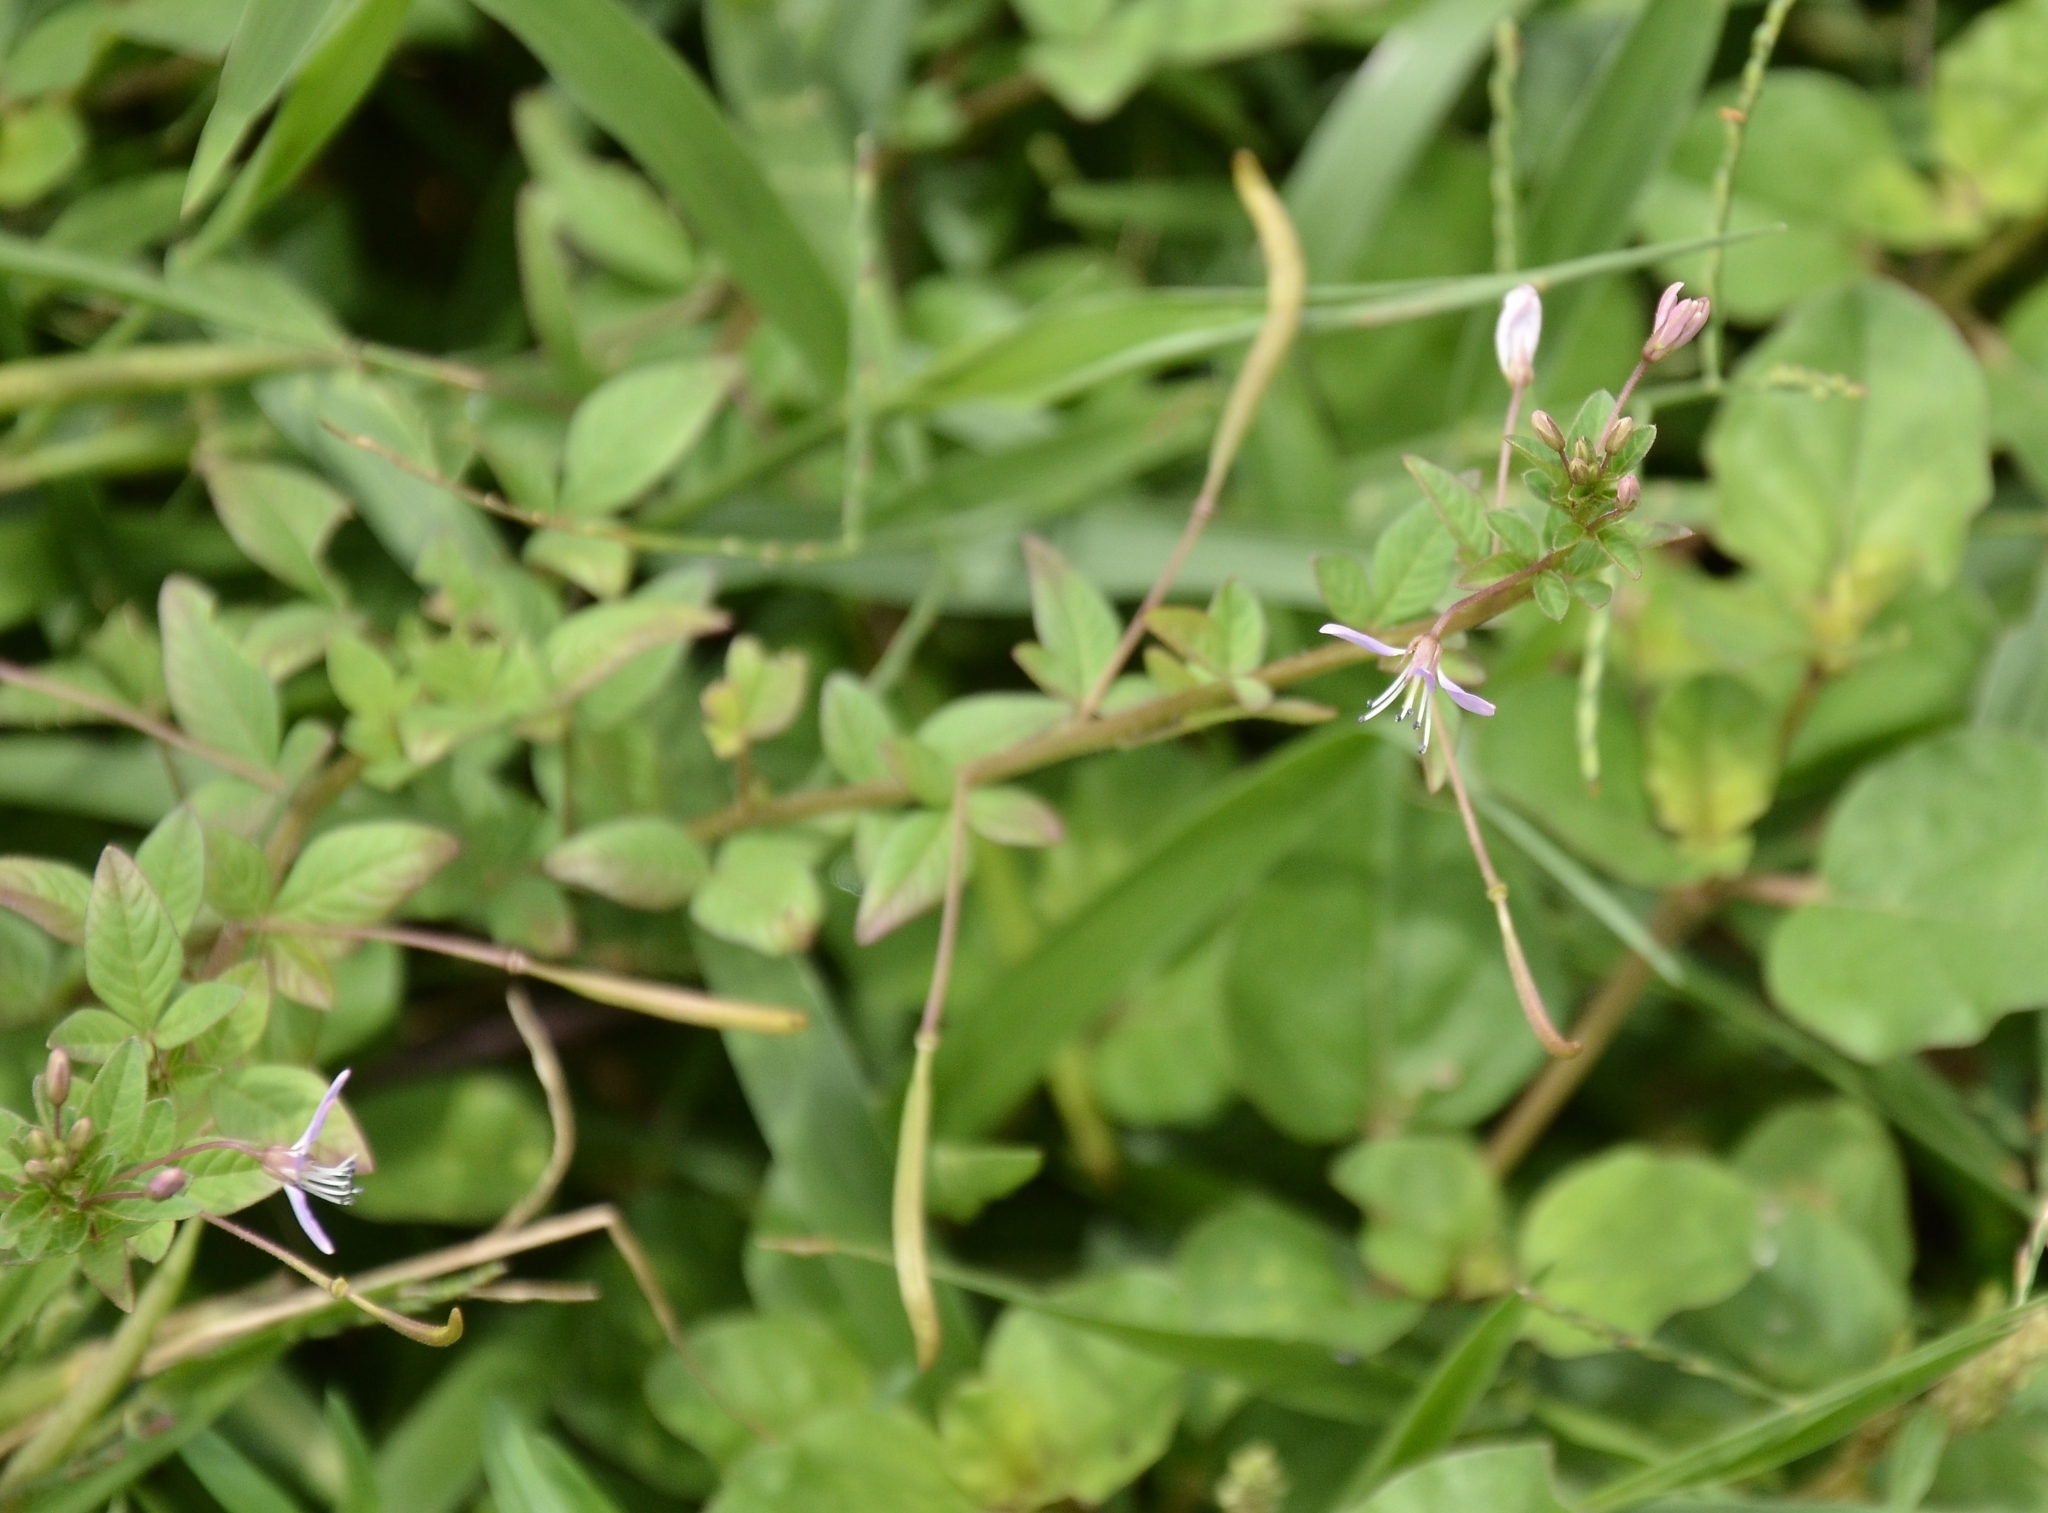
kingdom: Plantae
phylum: Tracheophyta
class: Magnoliopsida
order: Brassicales
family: Cleomaceae
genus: Sieruela
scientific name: Sieruela rutidosperma
